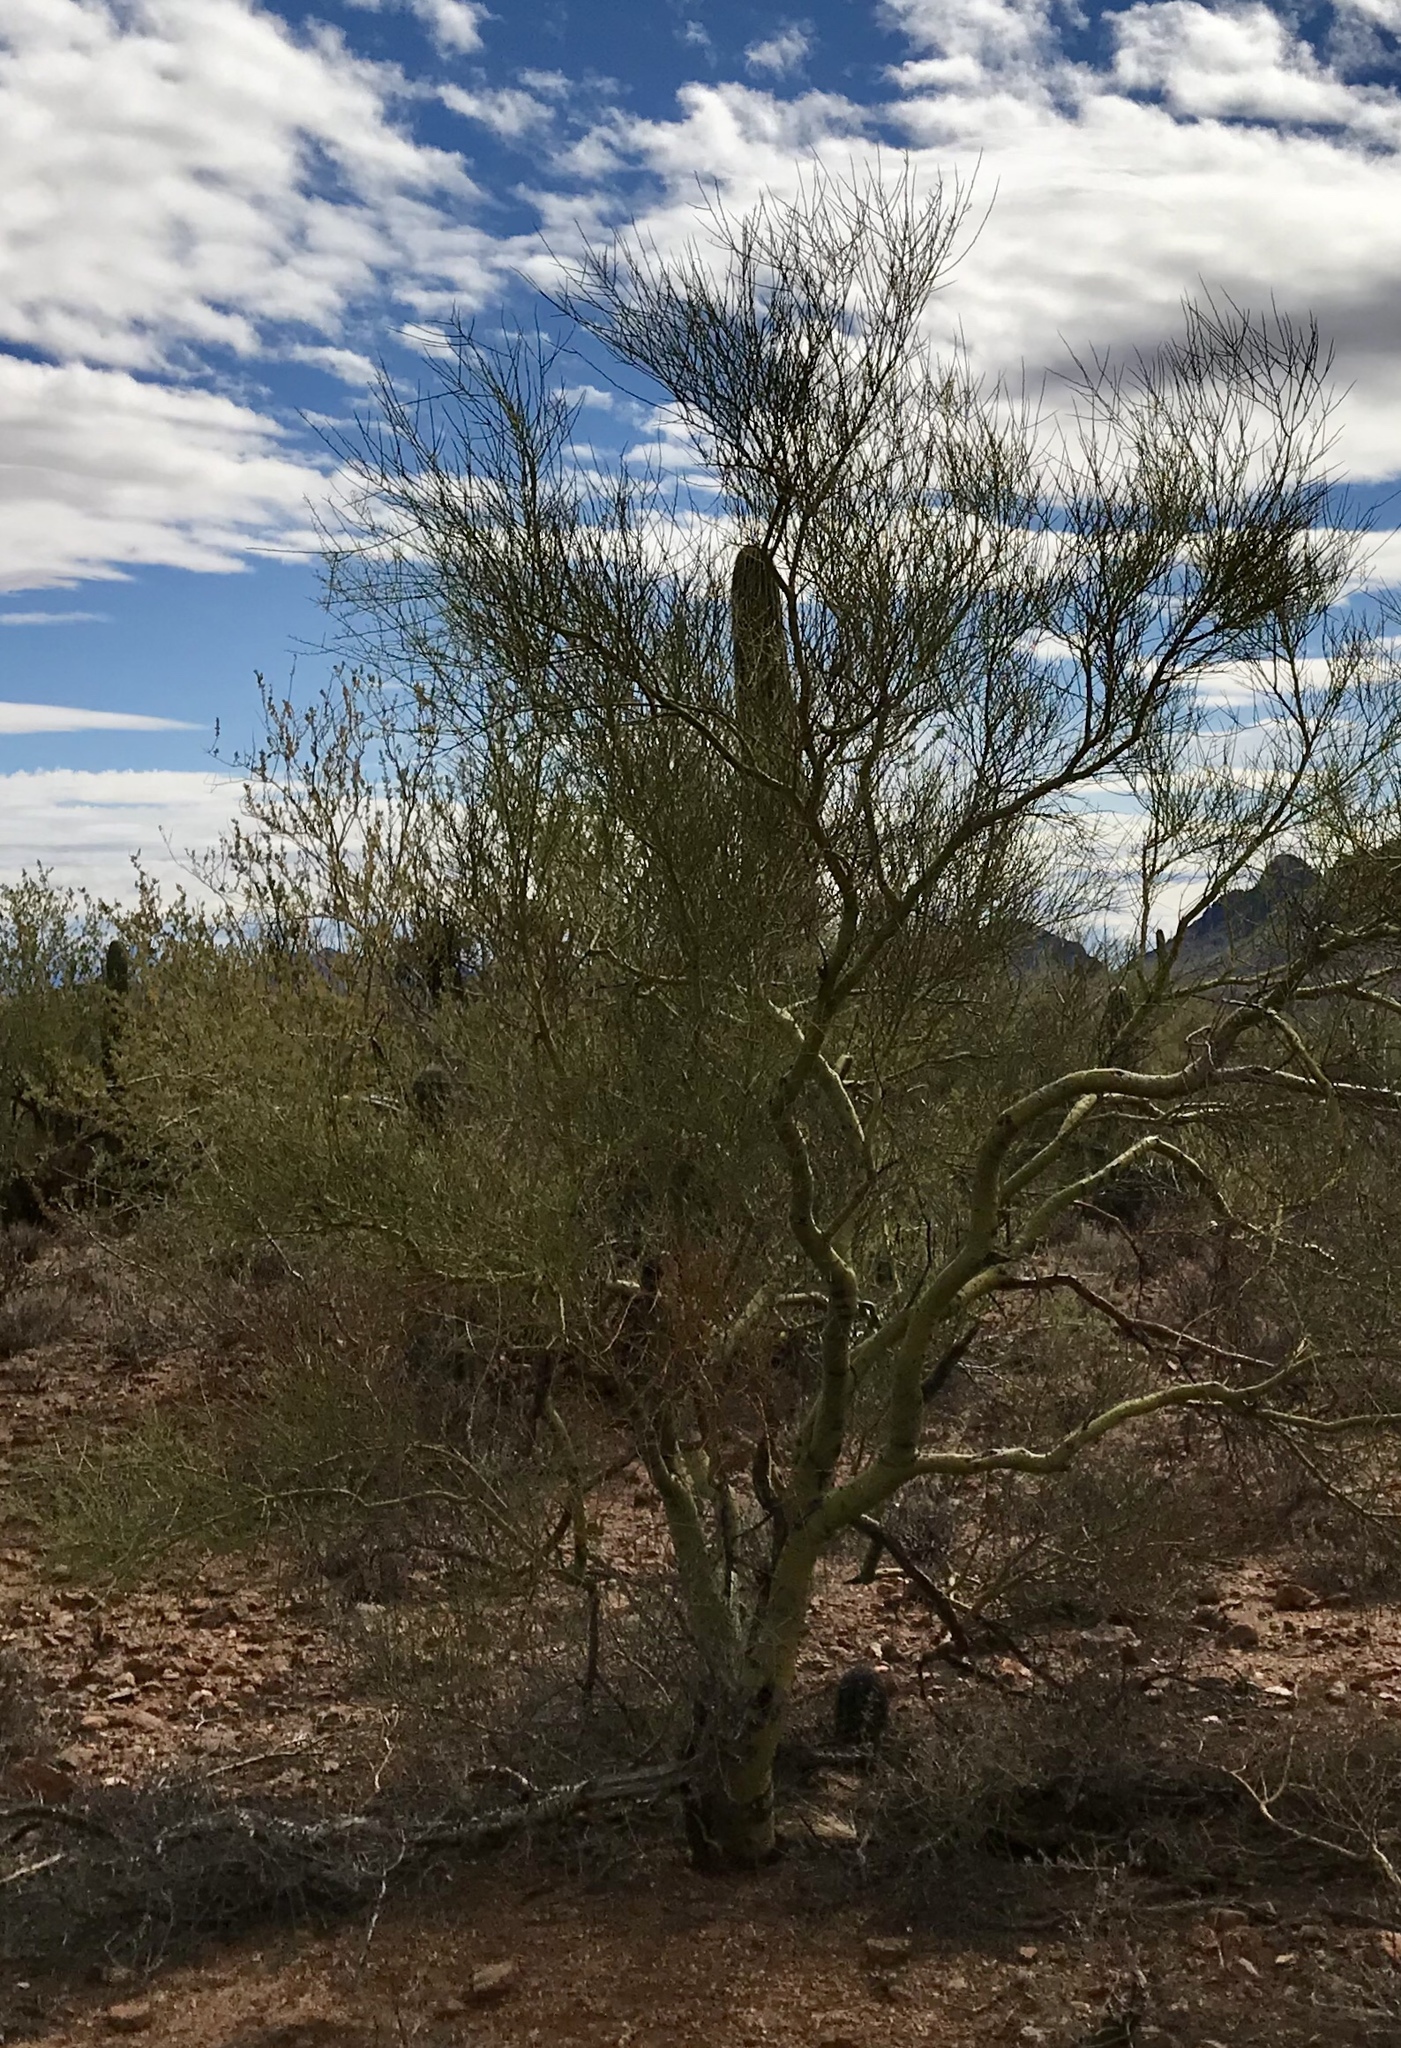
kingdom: Plantae
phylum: Tracheophyta
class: Magnoliopsida
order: Fabales
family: Fabaceae
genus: Parkinsonia
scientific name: Parkinsonia microphylla
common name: Yellow paloverde
